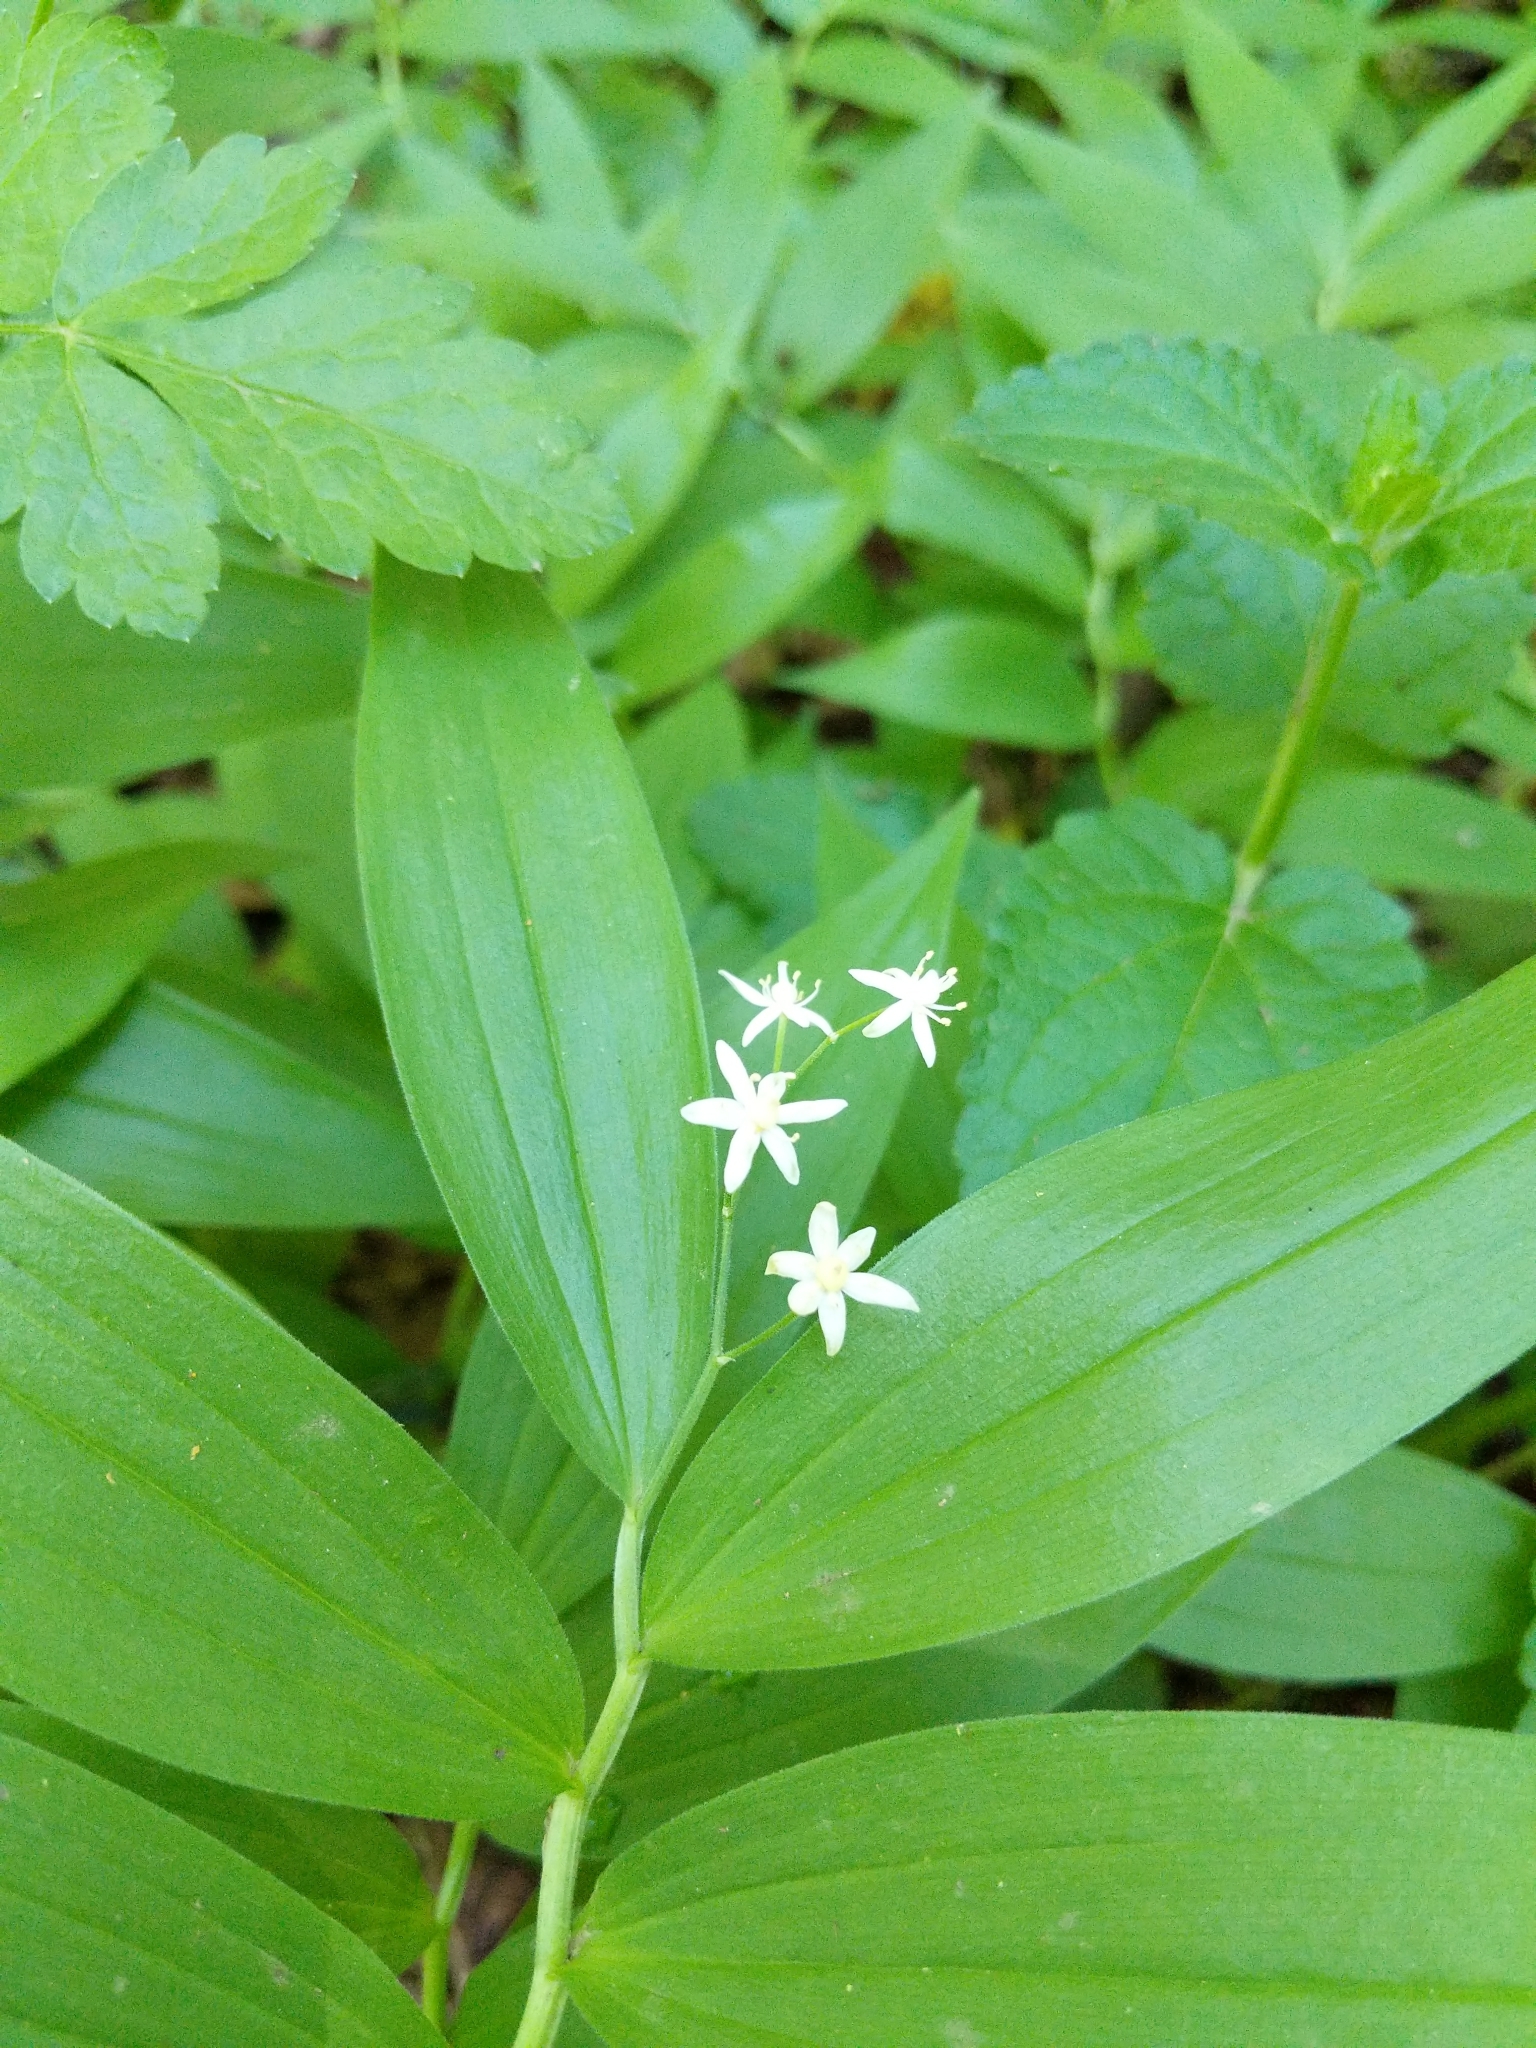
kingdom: Plantae
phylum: Tracheophyta
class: Liliopsida
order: Asparagales
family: Asparagaceae
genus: Maianthemum
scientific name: Maianthemum stellatum
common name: Little false solomon's seal
